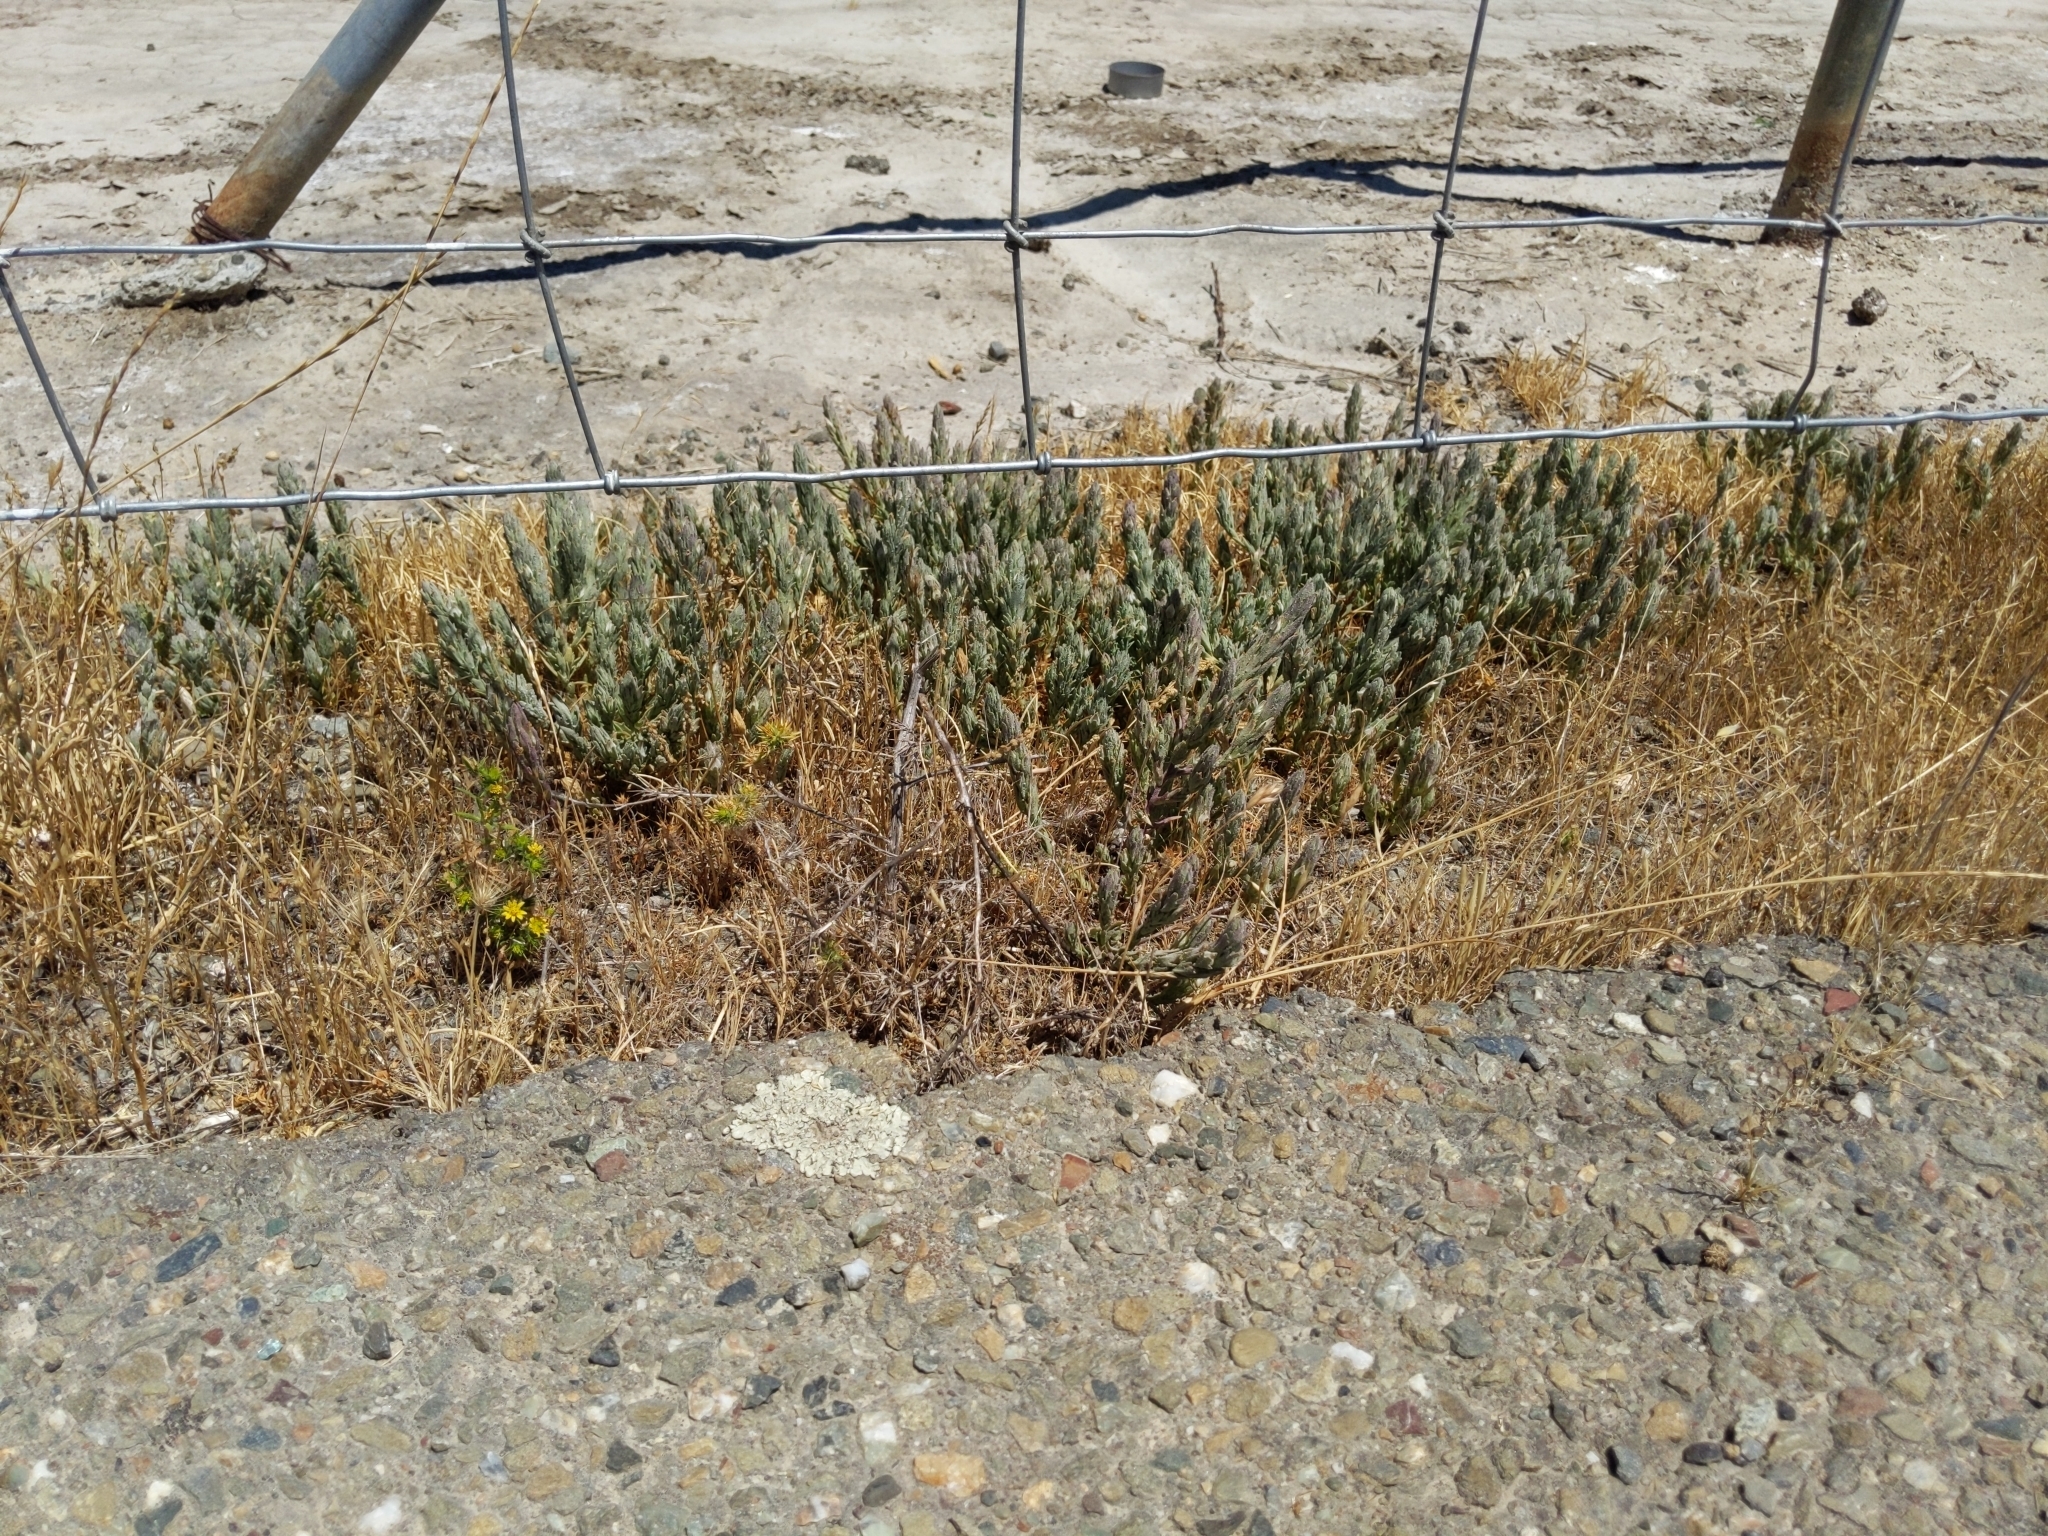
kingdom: Plantae
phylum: Tracheophyta
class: Magnoliopsida
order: Lamiales
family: Orobanchaceae
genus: Chloropyron
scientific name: Chloropyron palmatum
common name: Palmate salty bird's-beak
